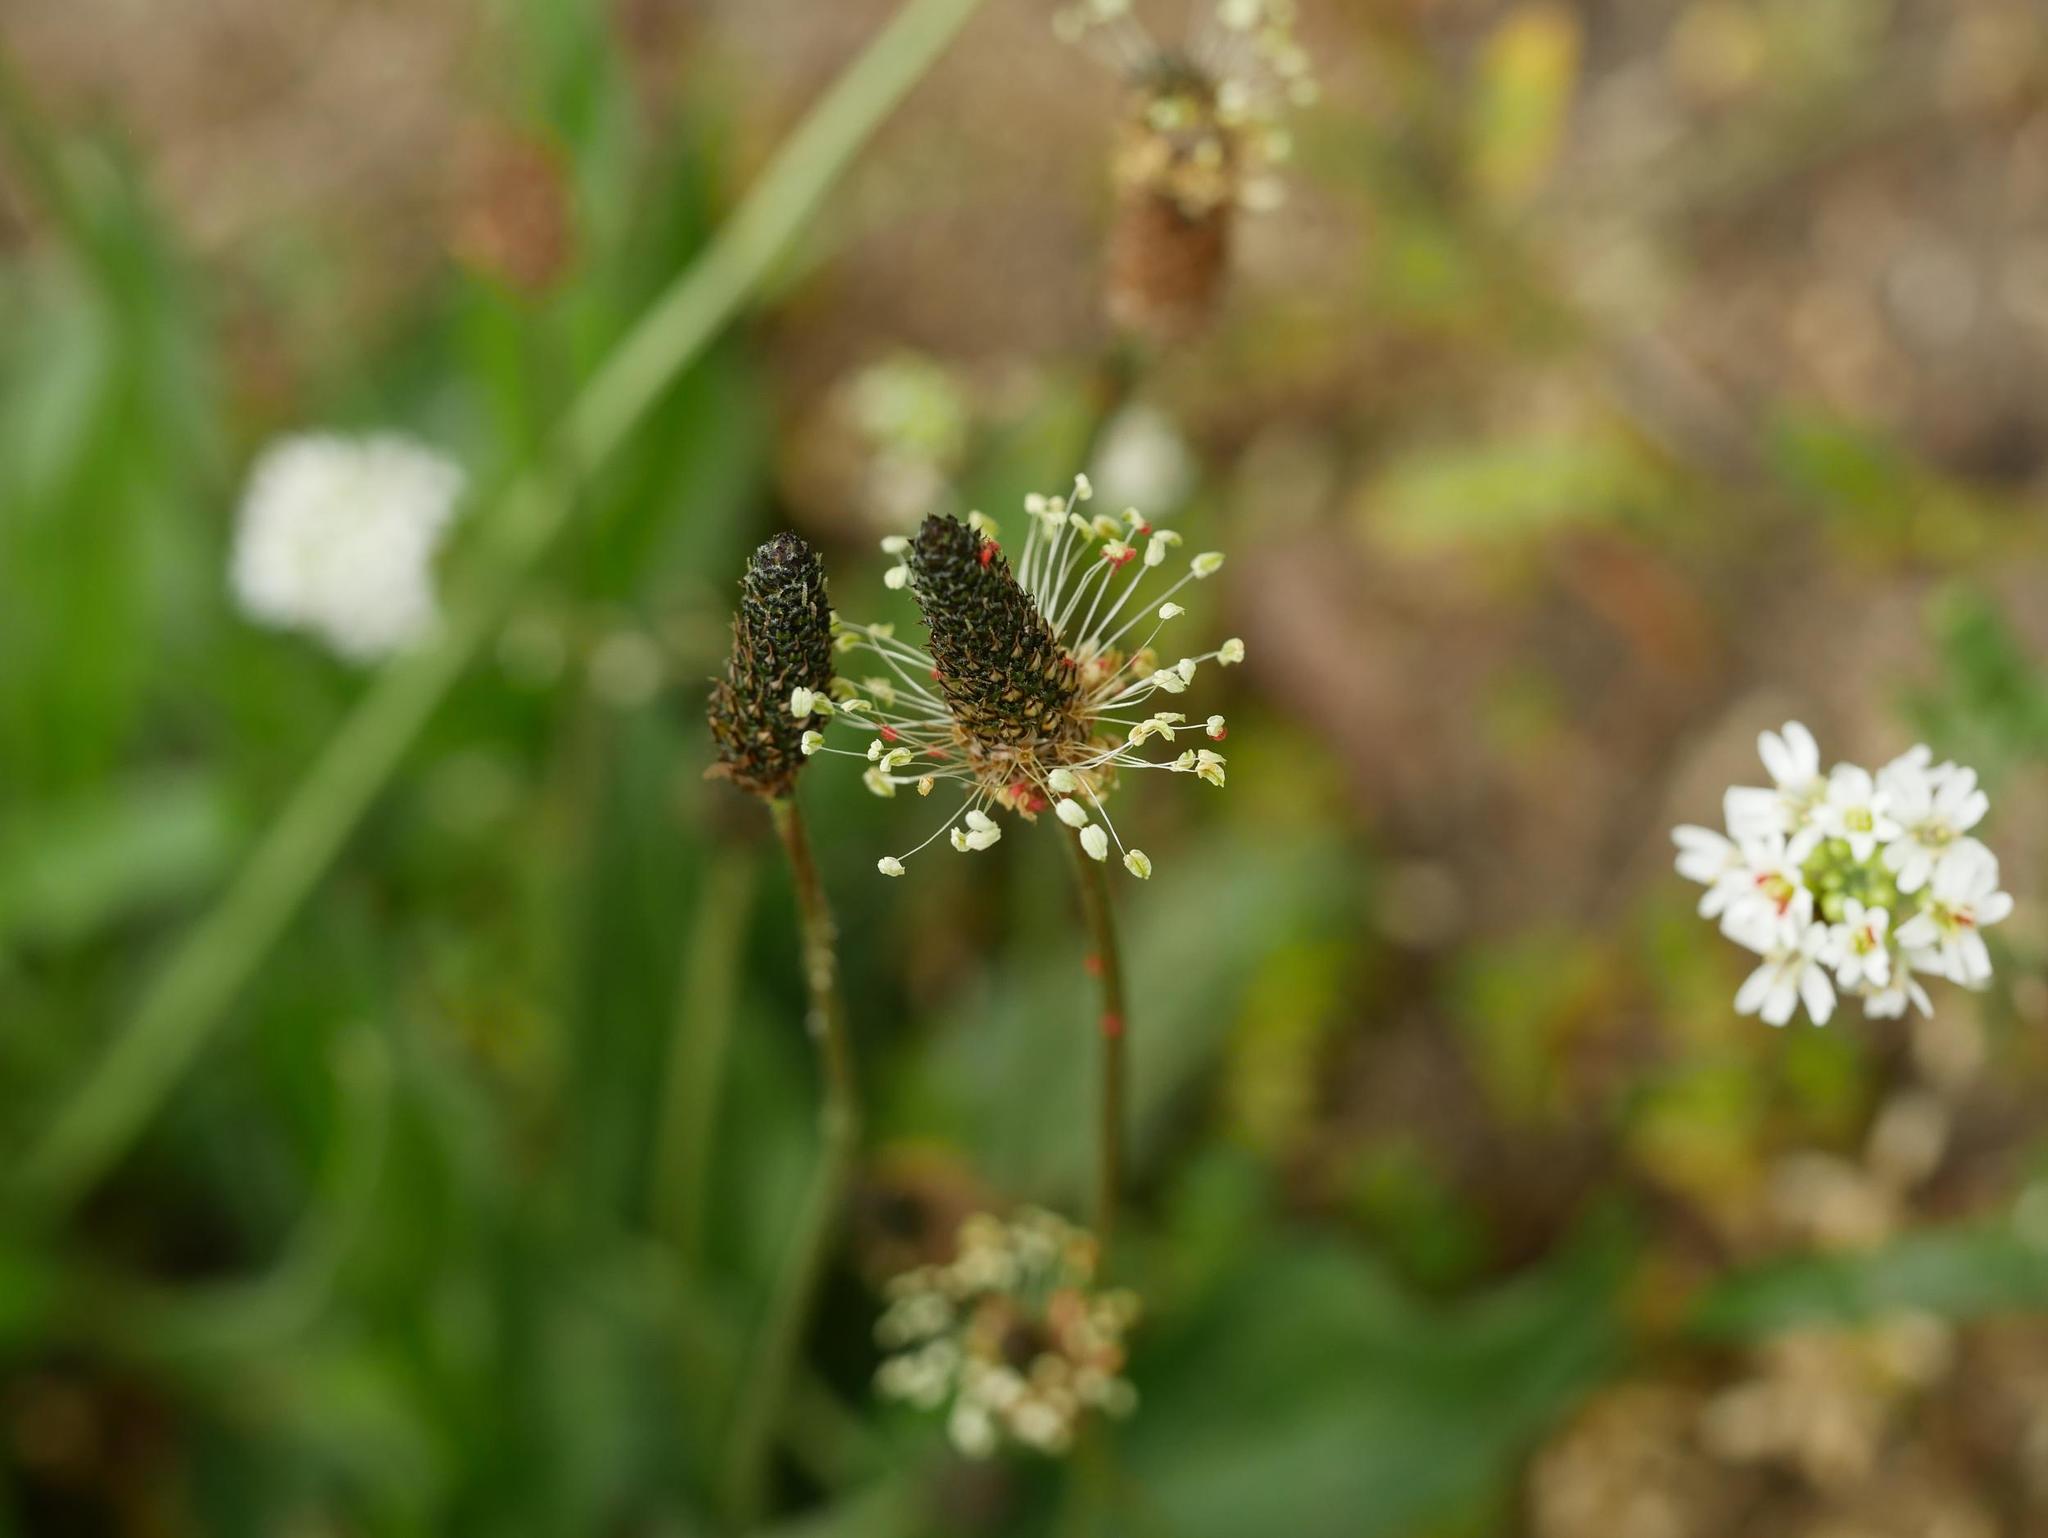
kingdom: Plantae
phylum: Tracheophyta
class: Magnoliopsida
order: Lamiales
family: Plantaginaceae
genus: Plantago
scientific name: Plantago lanceolata
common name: Ribwort plantain
